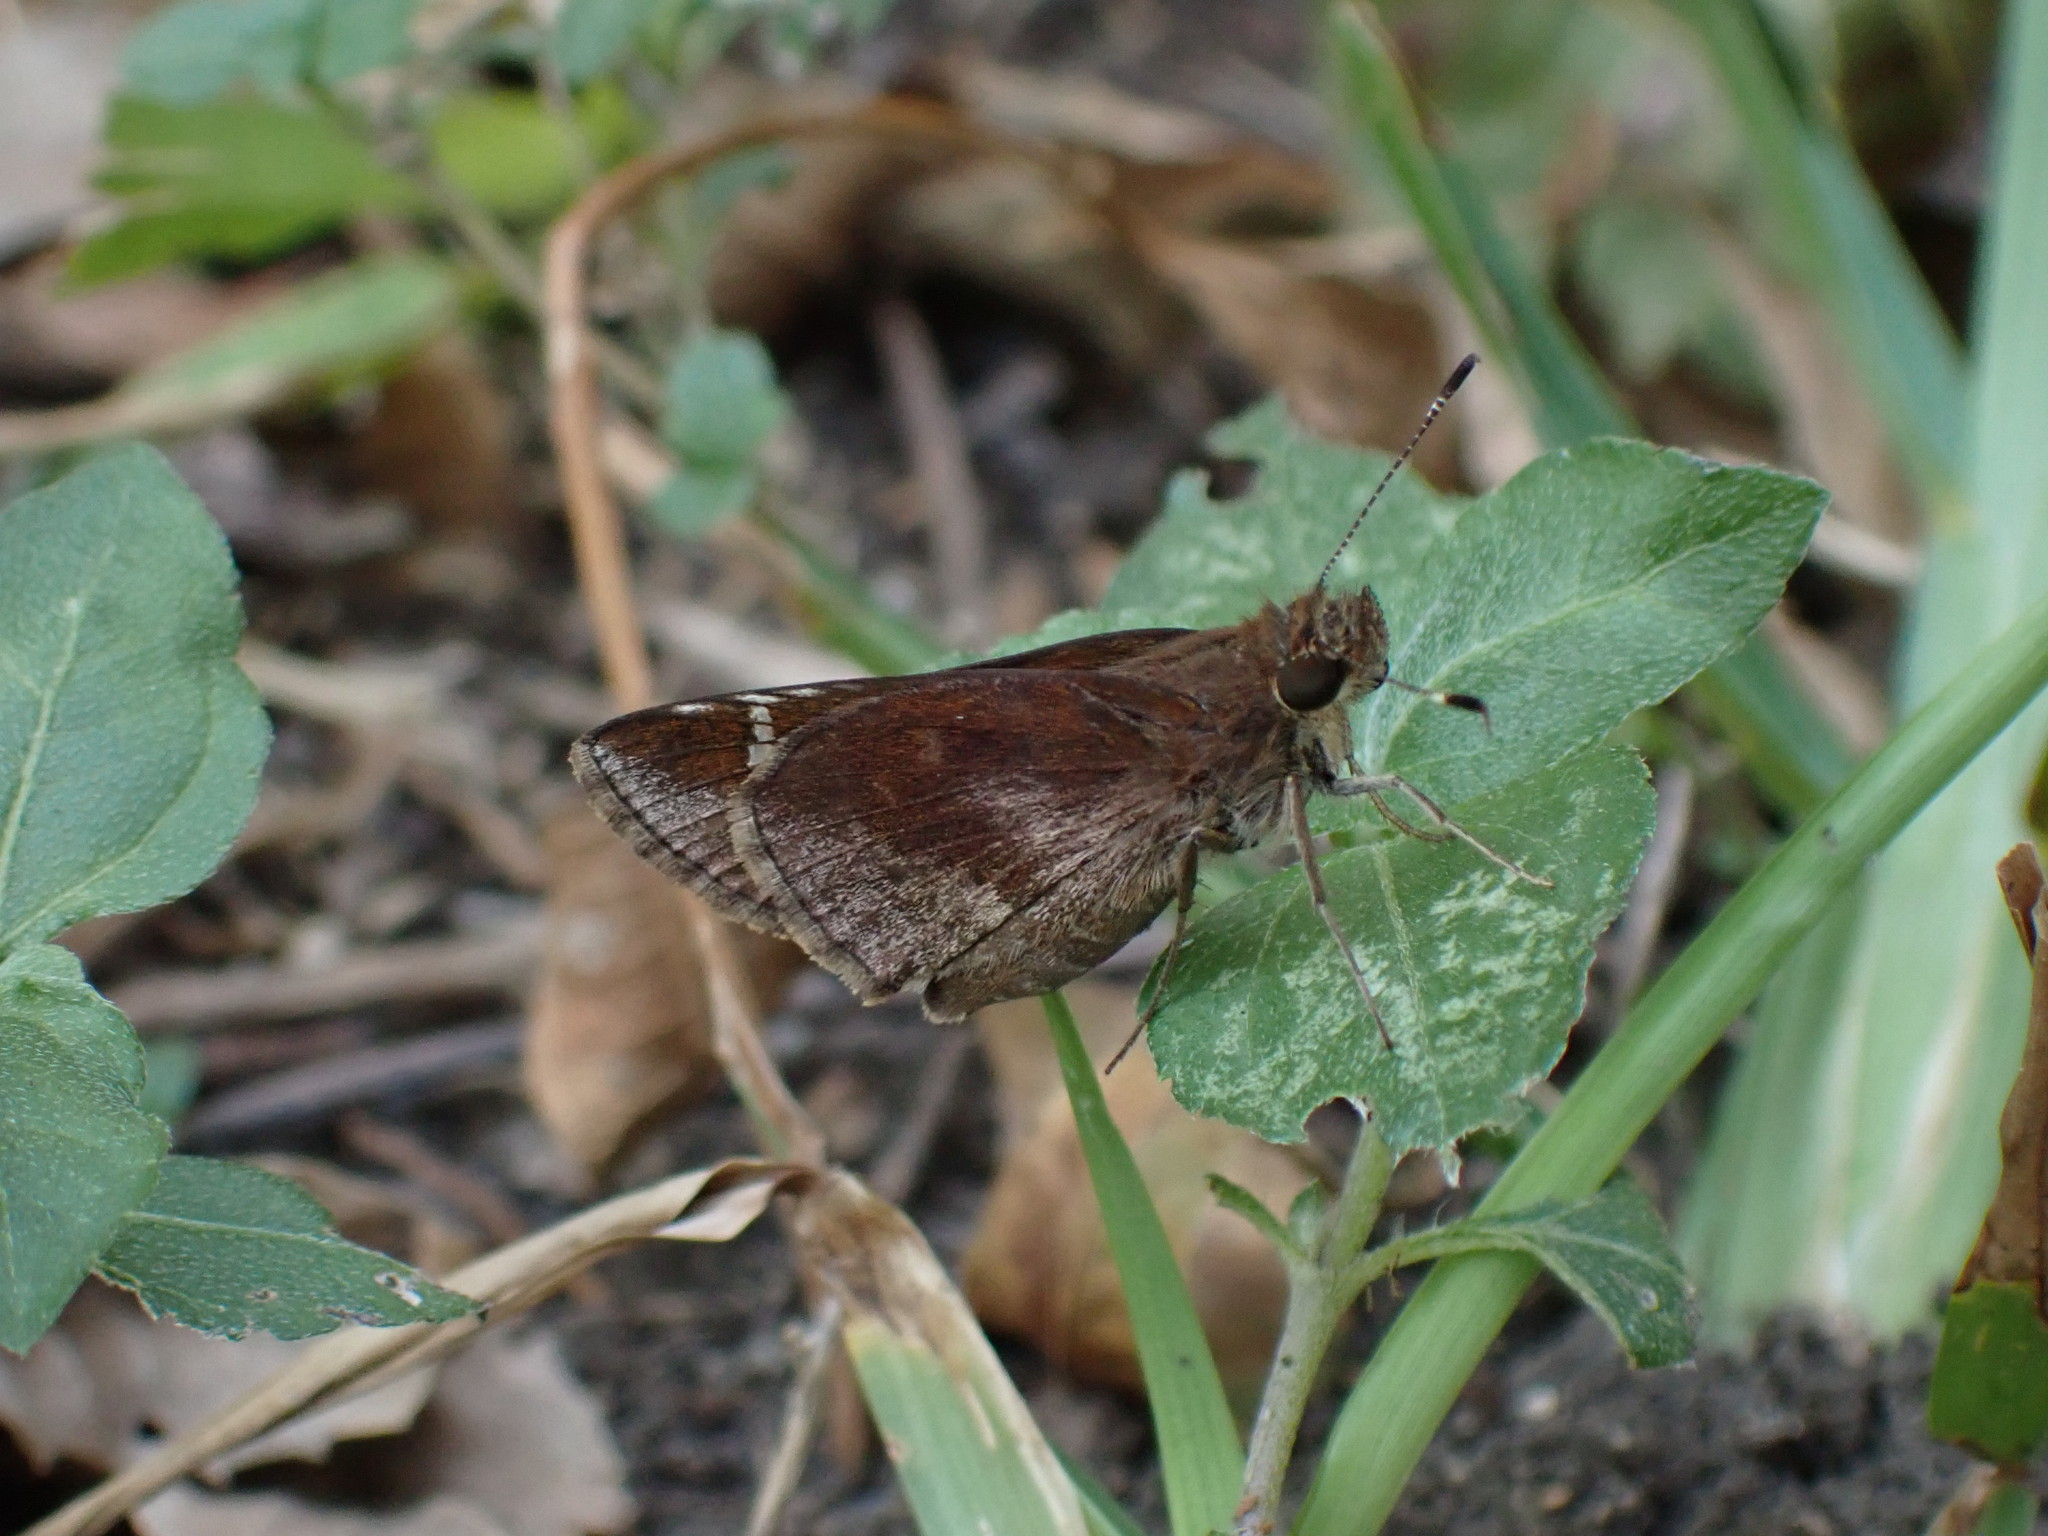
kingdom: Animalia
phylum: Arthropoda
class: Insecta
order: Lepidoptera
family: Hesperiidae
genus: Lerema
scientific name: Lerema accius
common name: Clouded skipper
